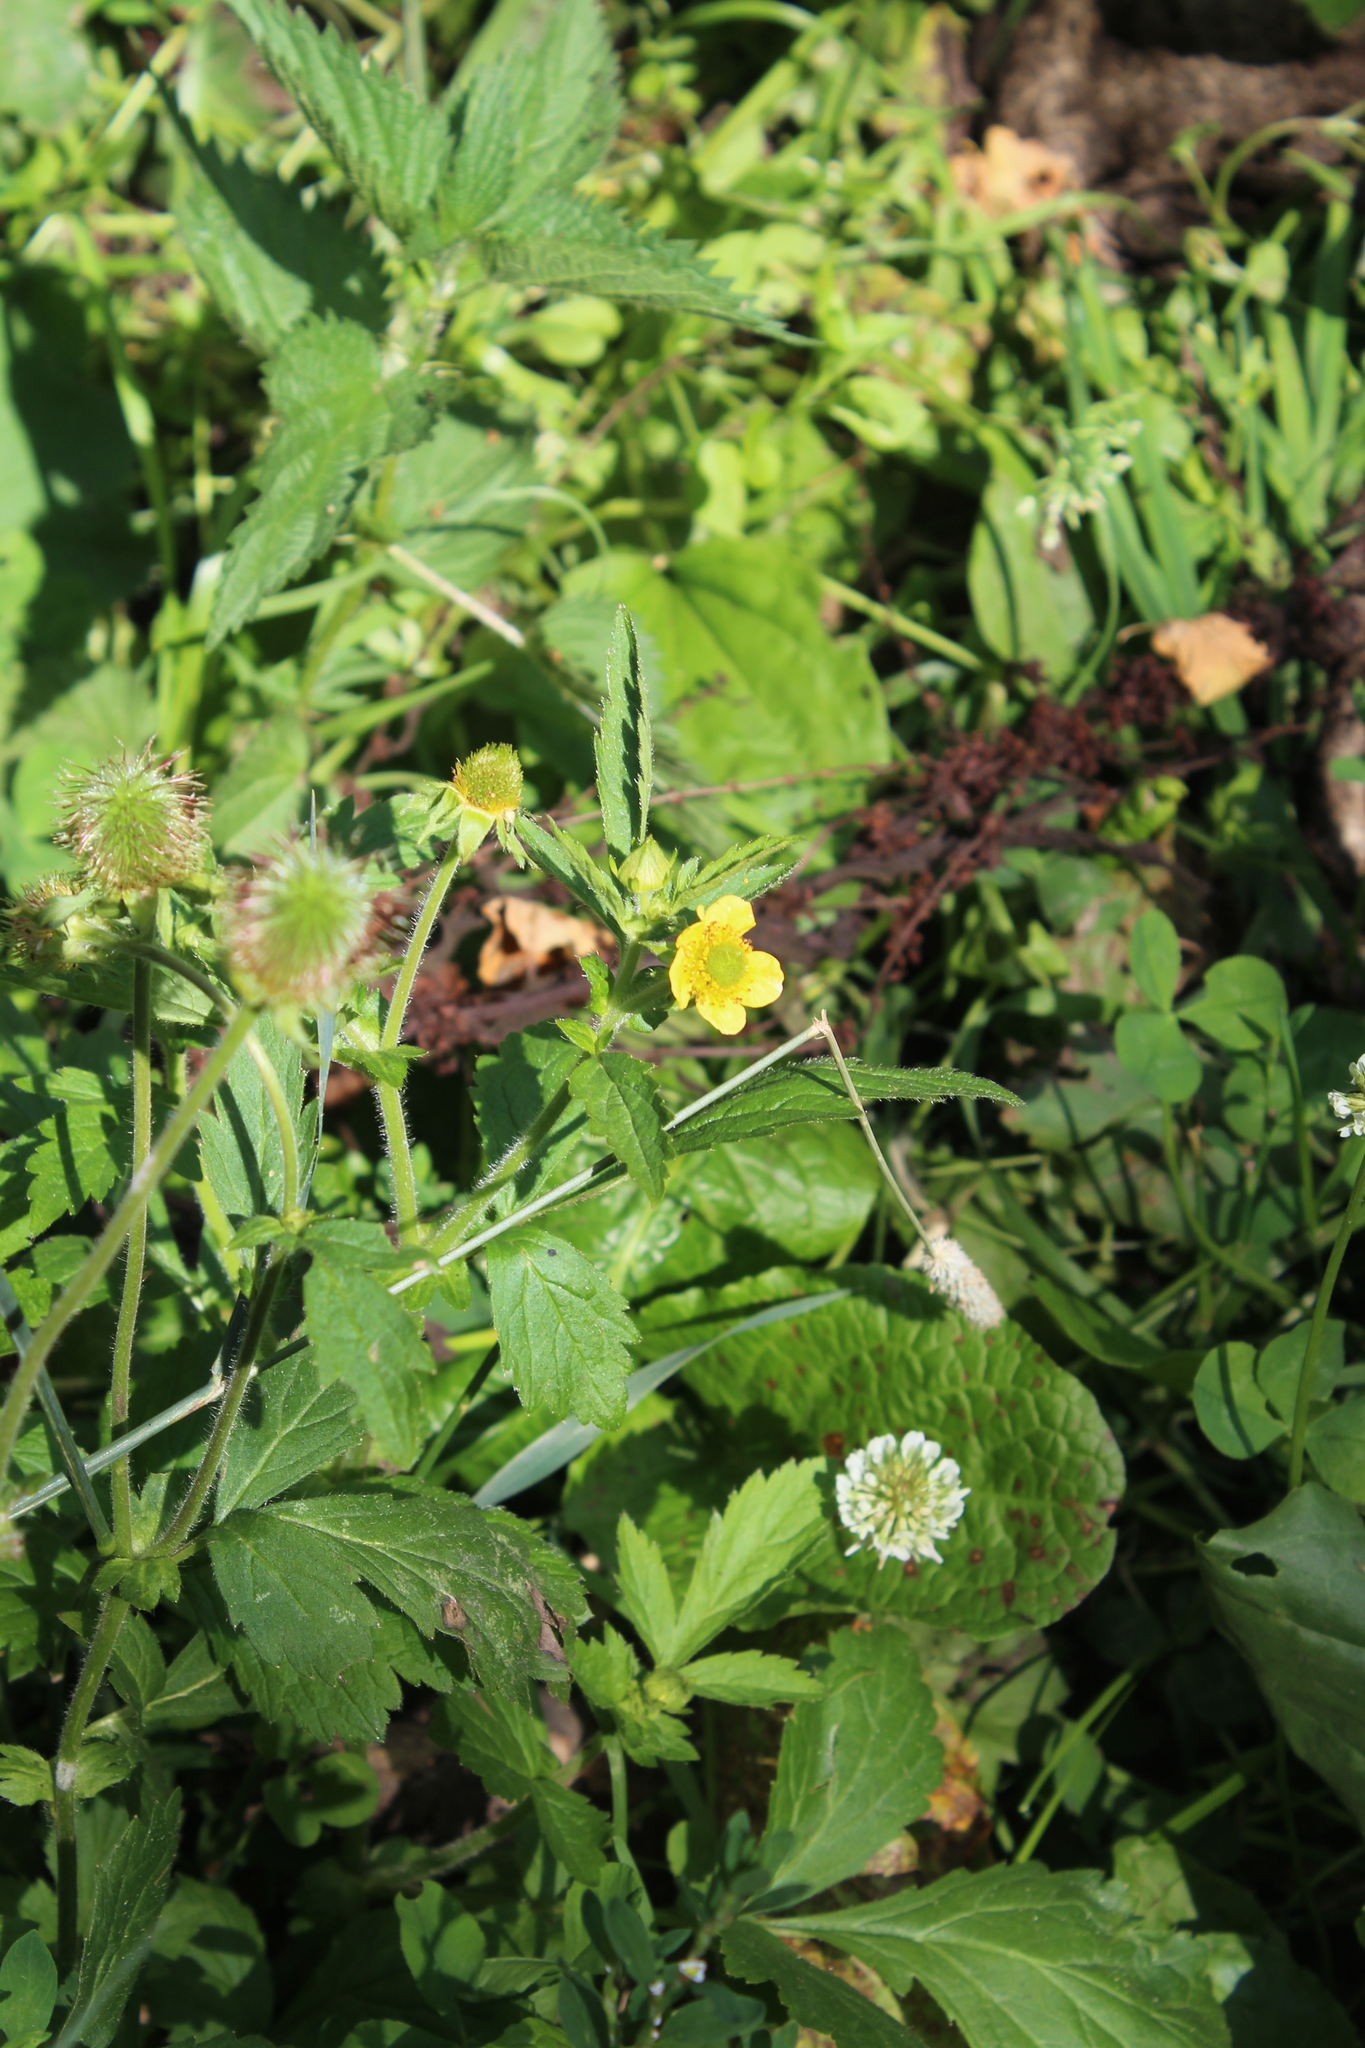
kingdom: Plantae
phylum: Tracheophyta
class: Magnoliopsida
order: Rosales
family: Rosaceae
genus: Geum
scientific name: Geum aleppicum
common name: Yellow avens
